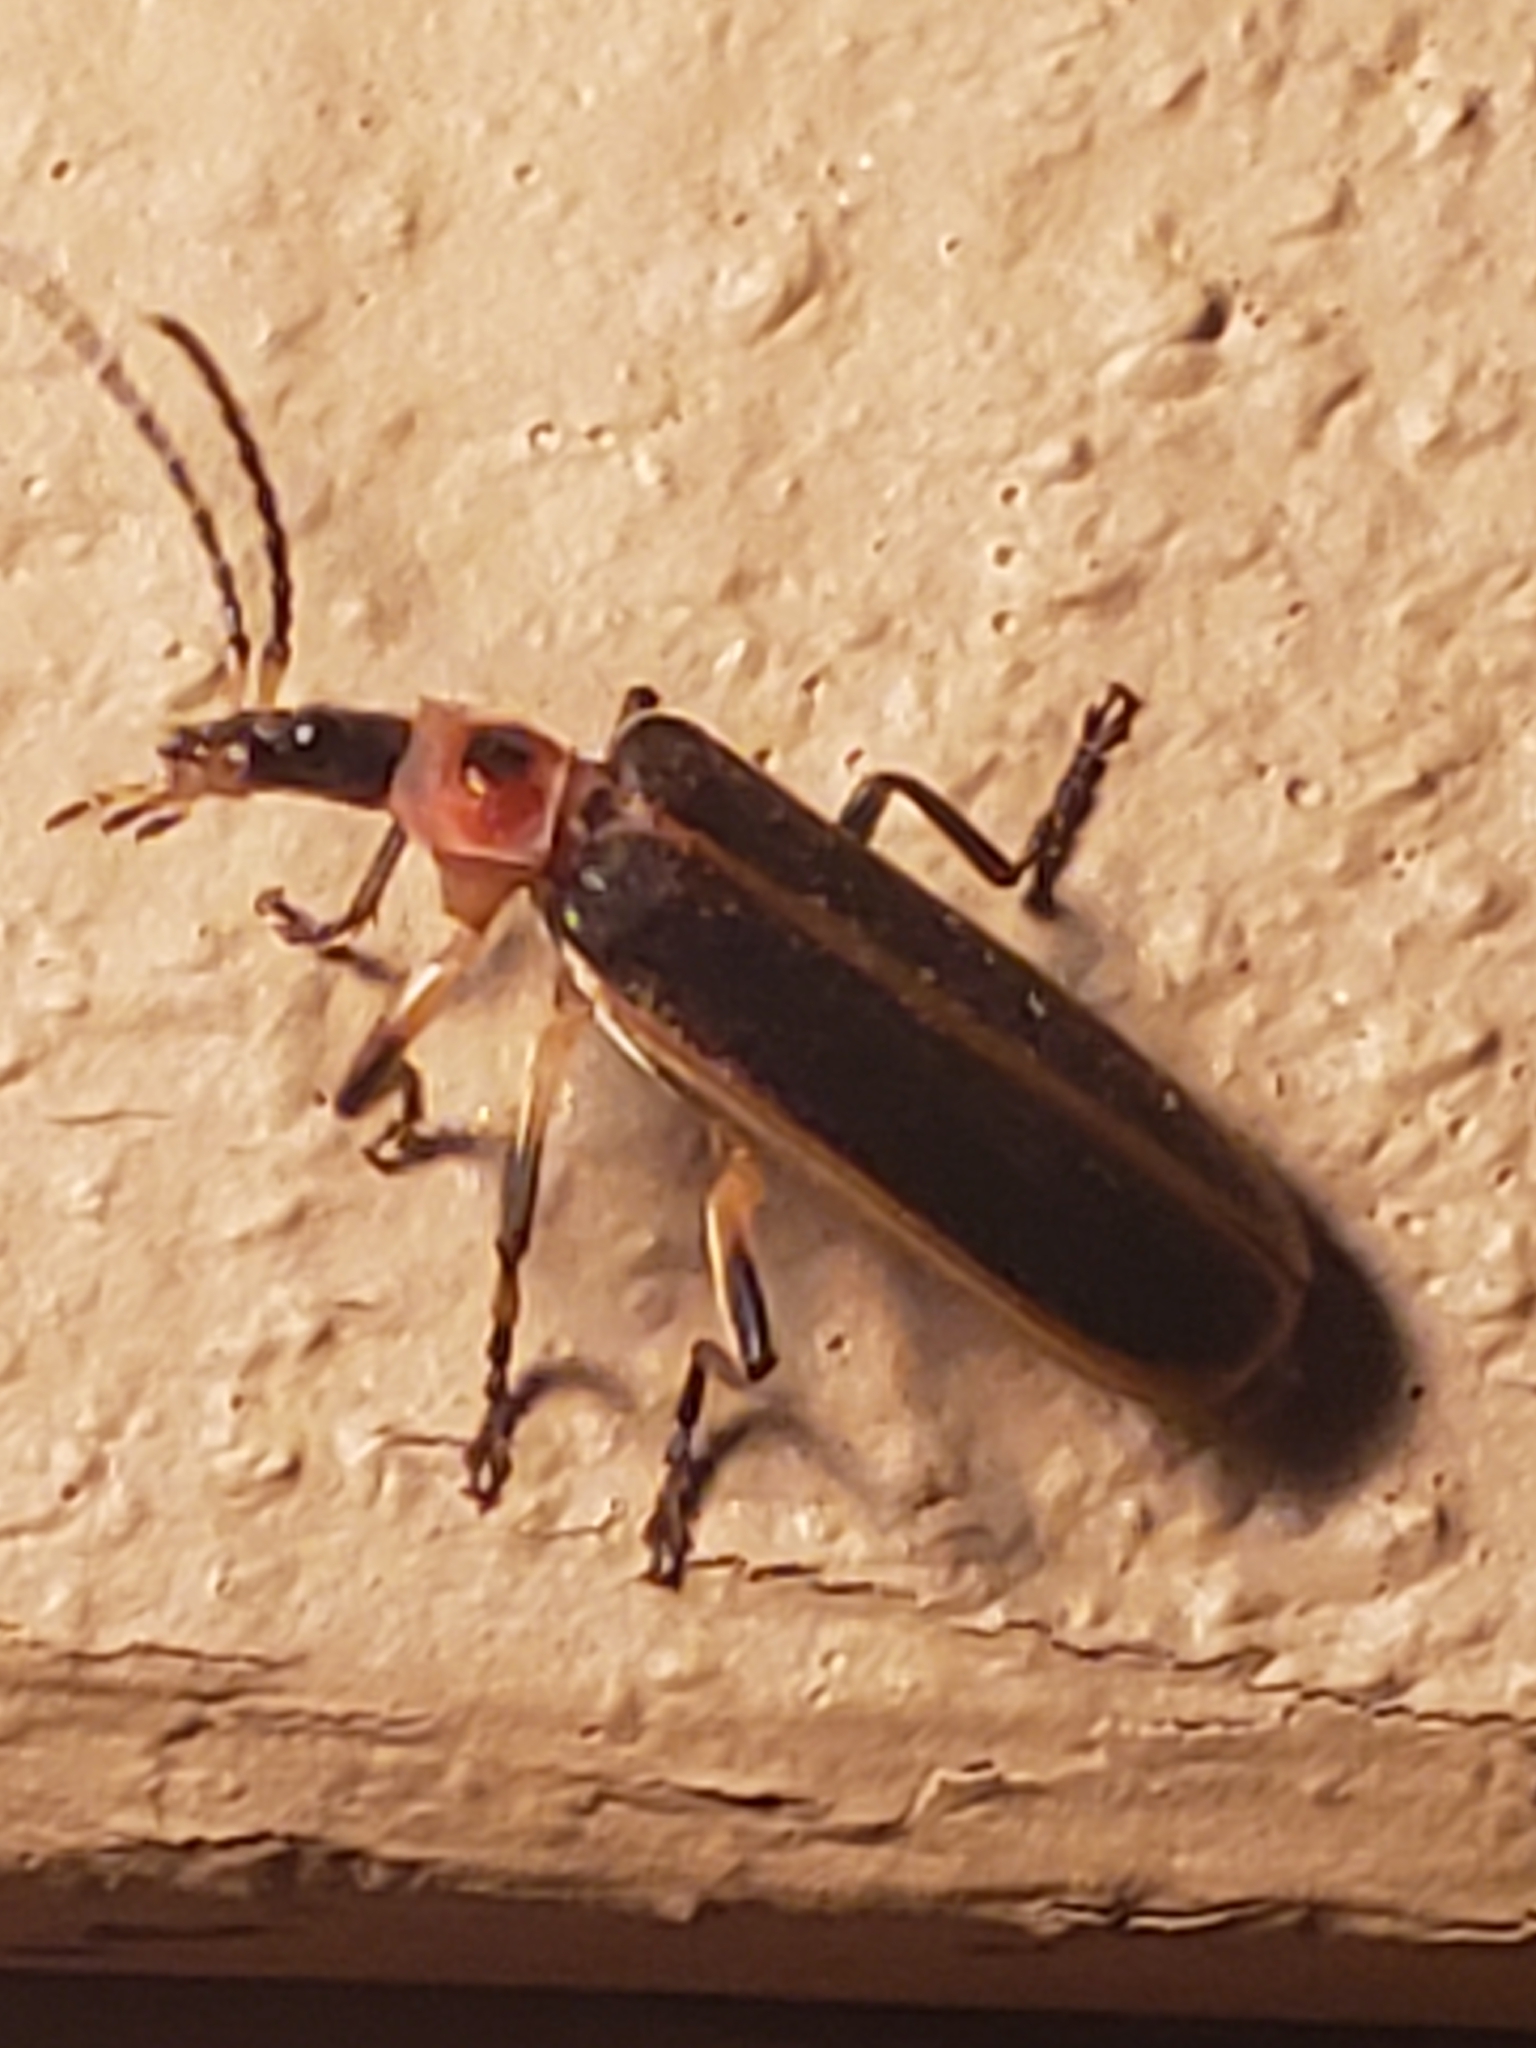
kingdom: Animalia
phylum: Arthropoda
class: Insecta
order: Coleoptera
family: Cantharidae
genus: Podabrus
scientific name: Podabrus appendiculatus
